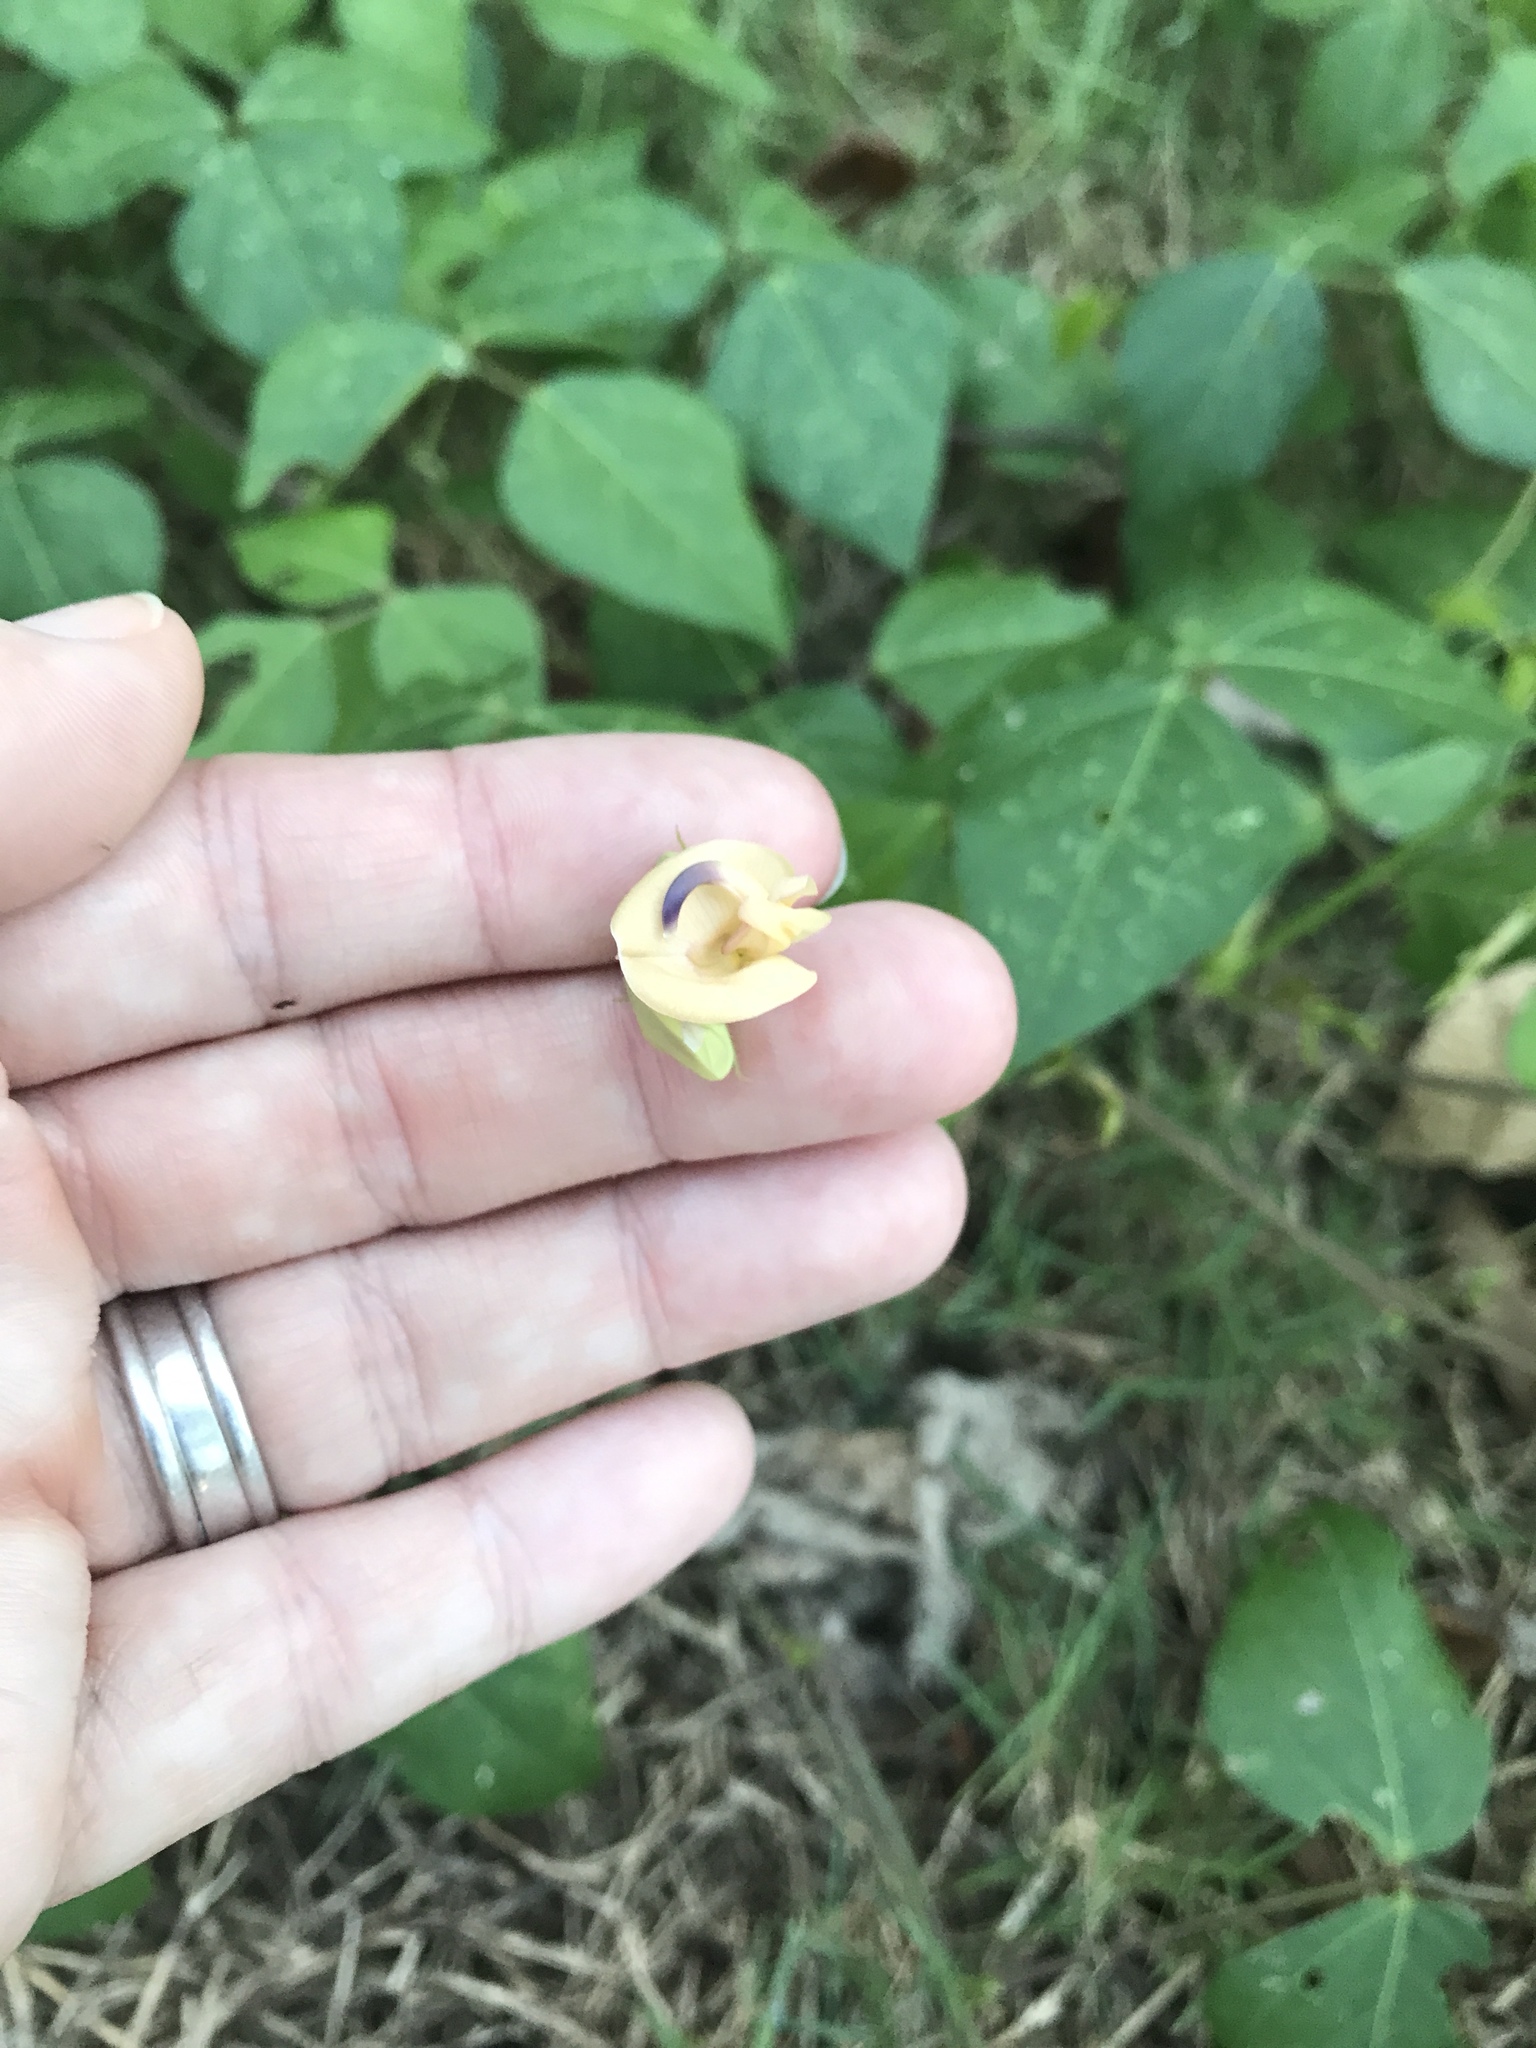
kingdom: Plantae
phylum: Tracheophyta
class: Magnoliopsida
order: Fabales
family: Fabaceae
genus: Strophostyles
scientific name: Strophostyles helvola
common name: Trailing wild bean
